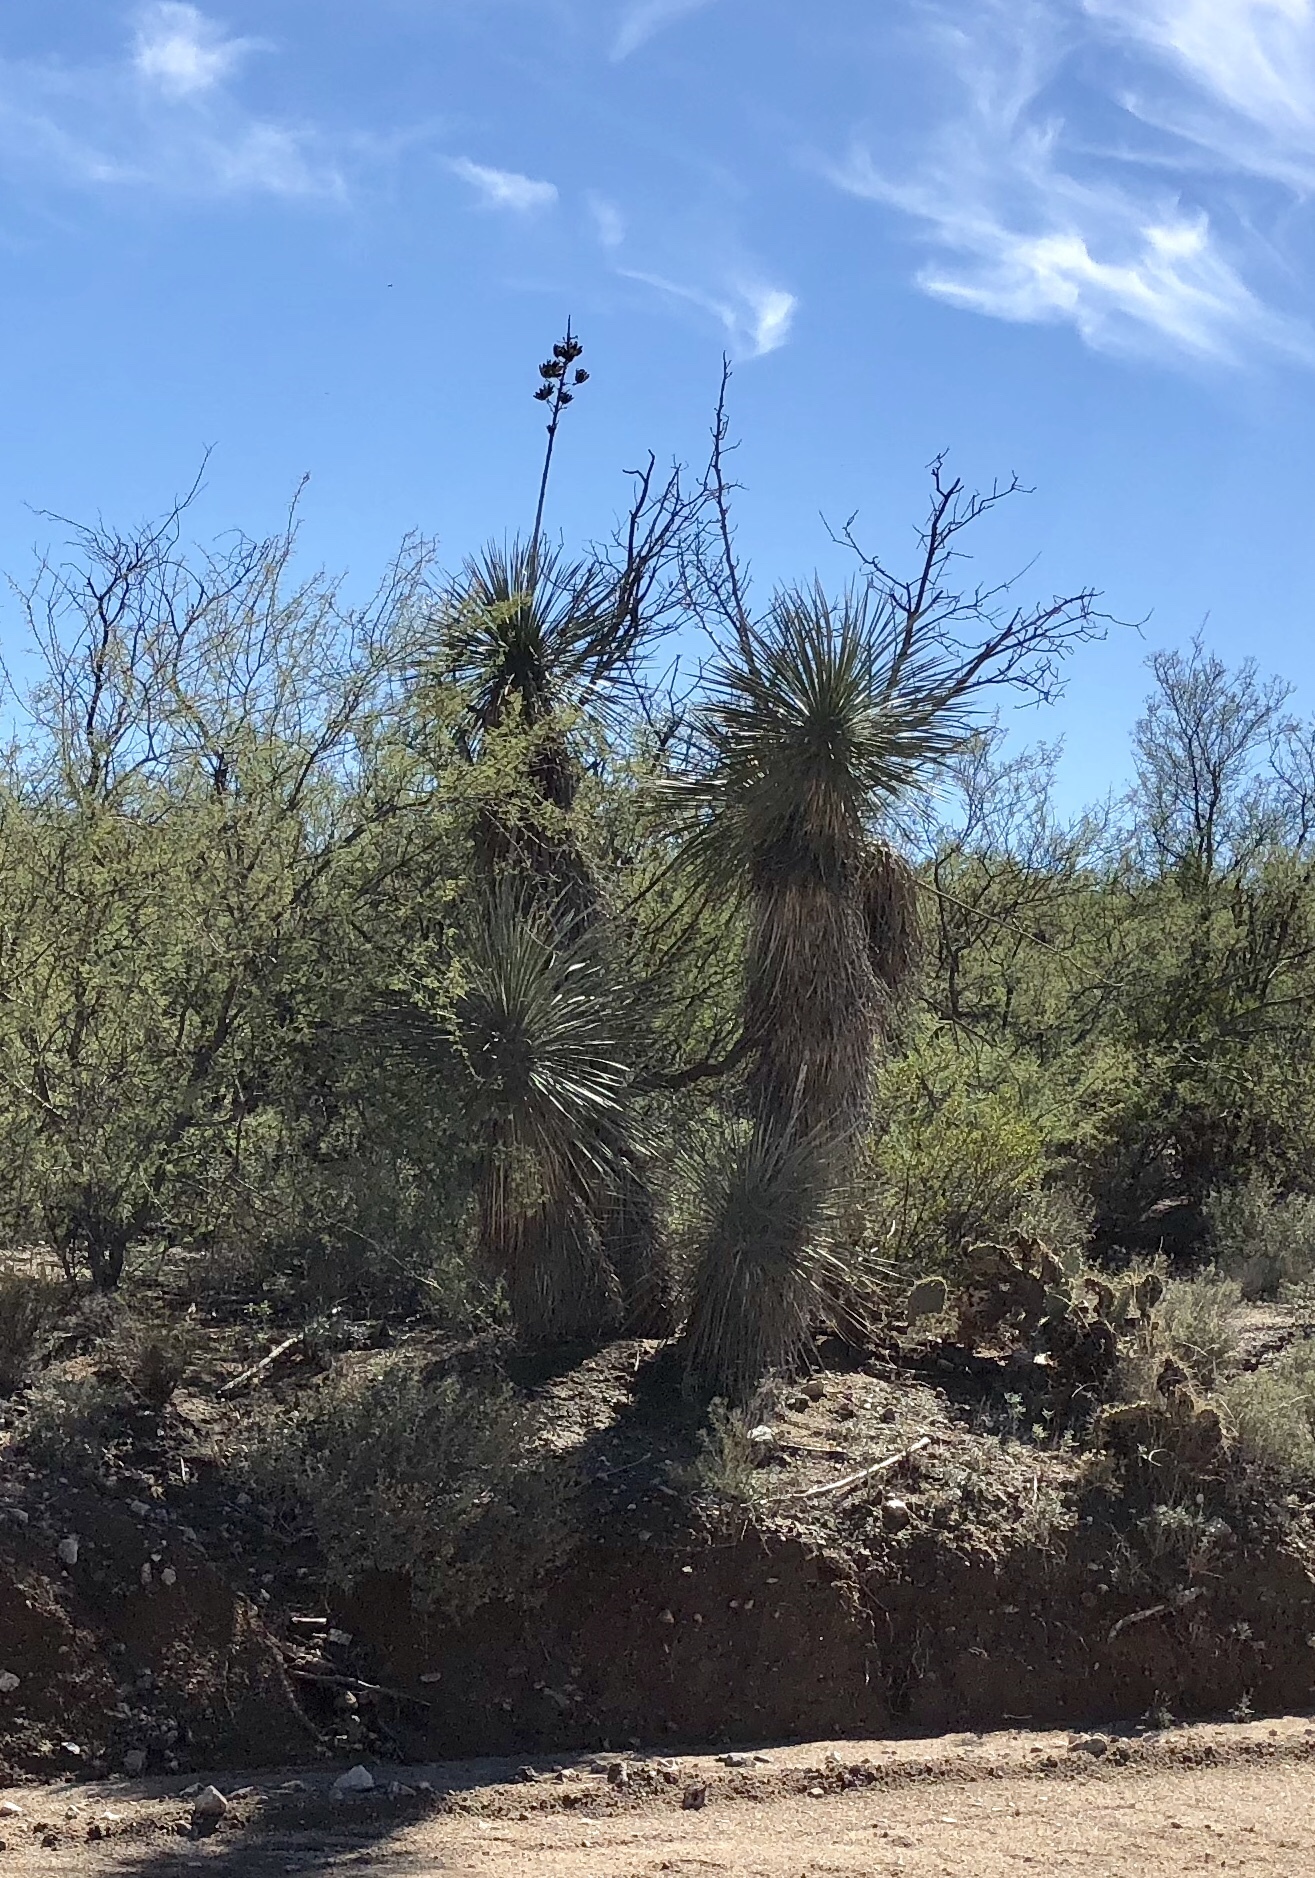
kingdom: Plantae
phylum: Tracheophyta
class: Liliopsida
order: Asparagales
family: Asparagaceae
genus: Yucca
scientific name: Yucca elata
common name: Palmella
